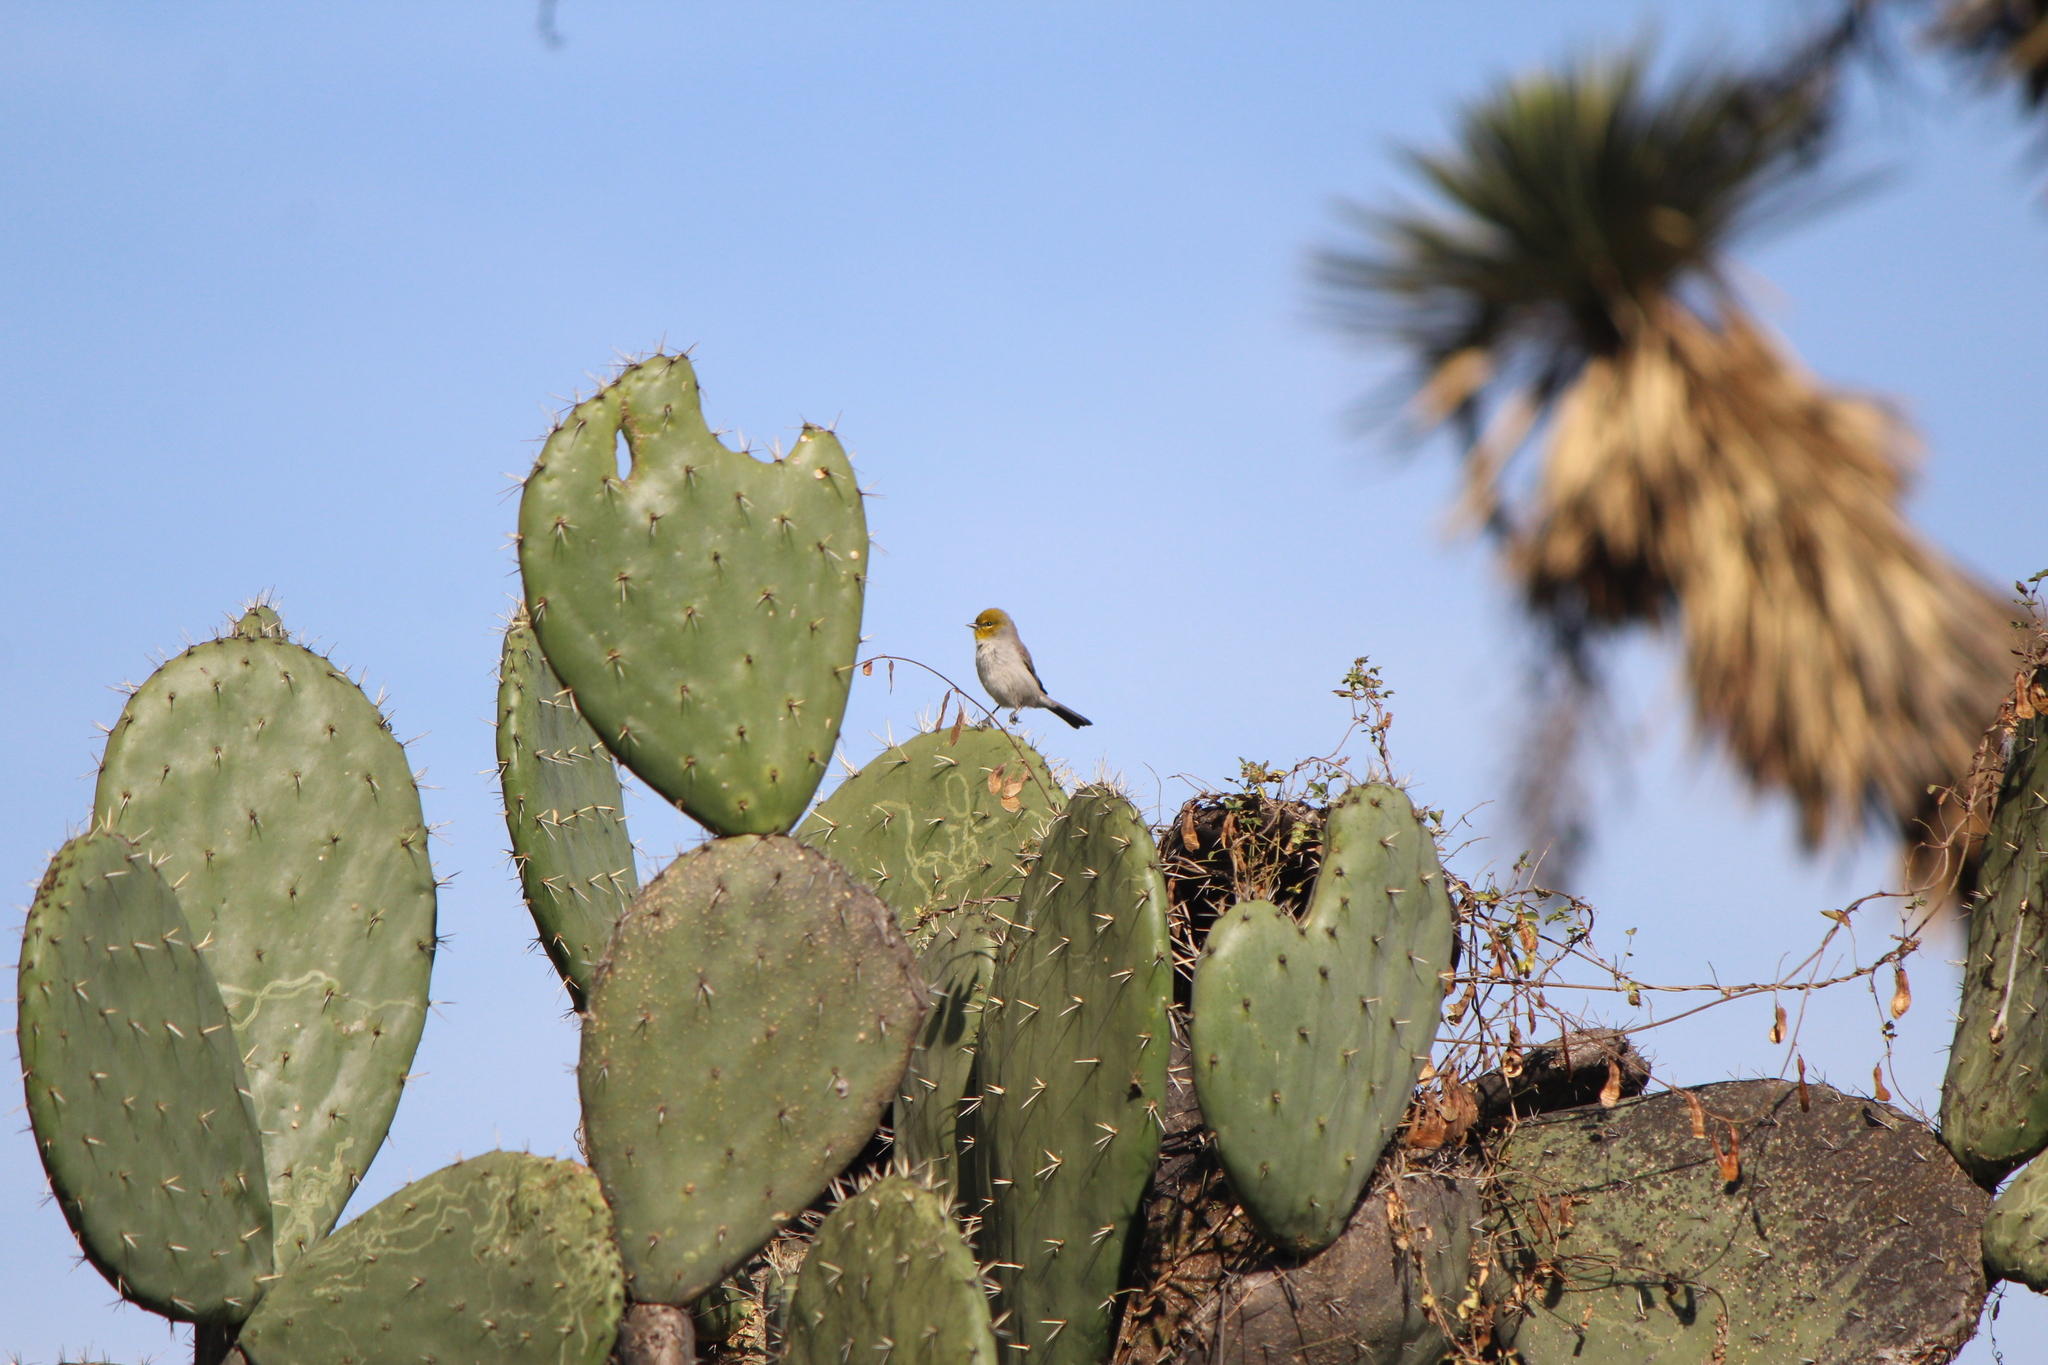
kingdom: Animalia
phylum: Chordata
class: Aves
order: Passeriformes
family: Remizidae
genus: Auriparus
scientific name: Auriparus flaviceps
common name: Verdin
